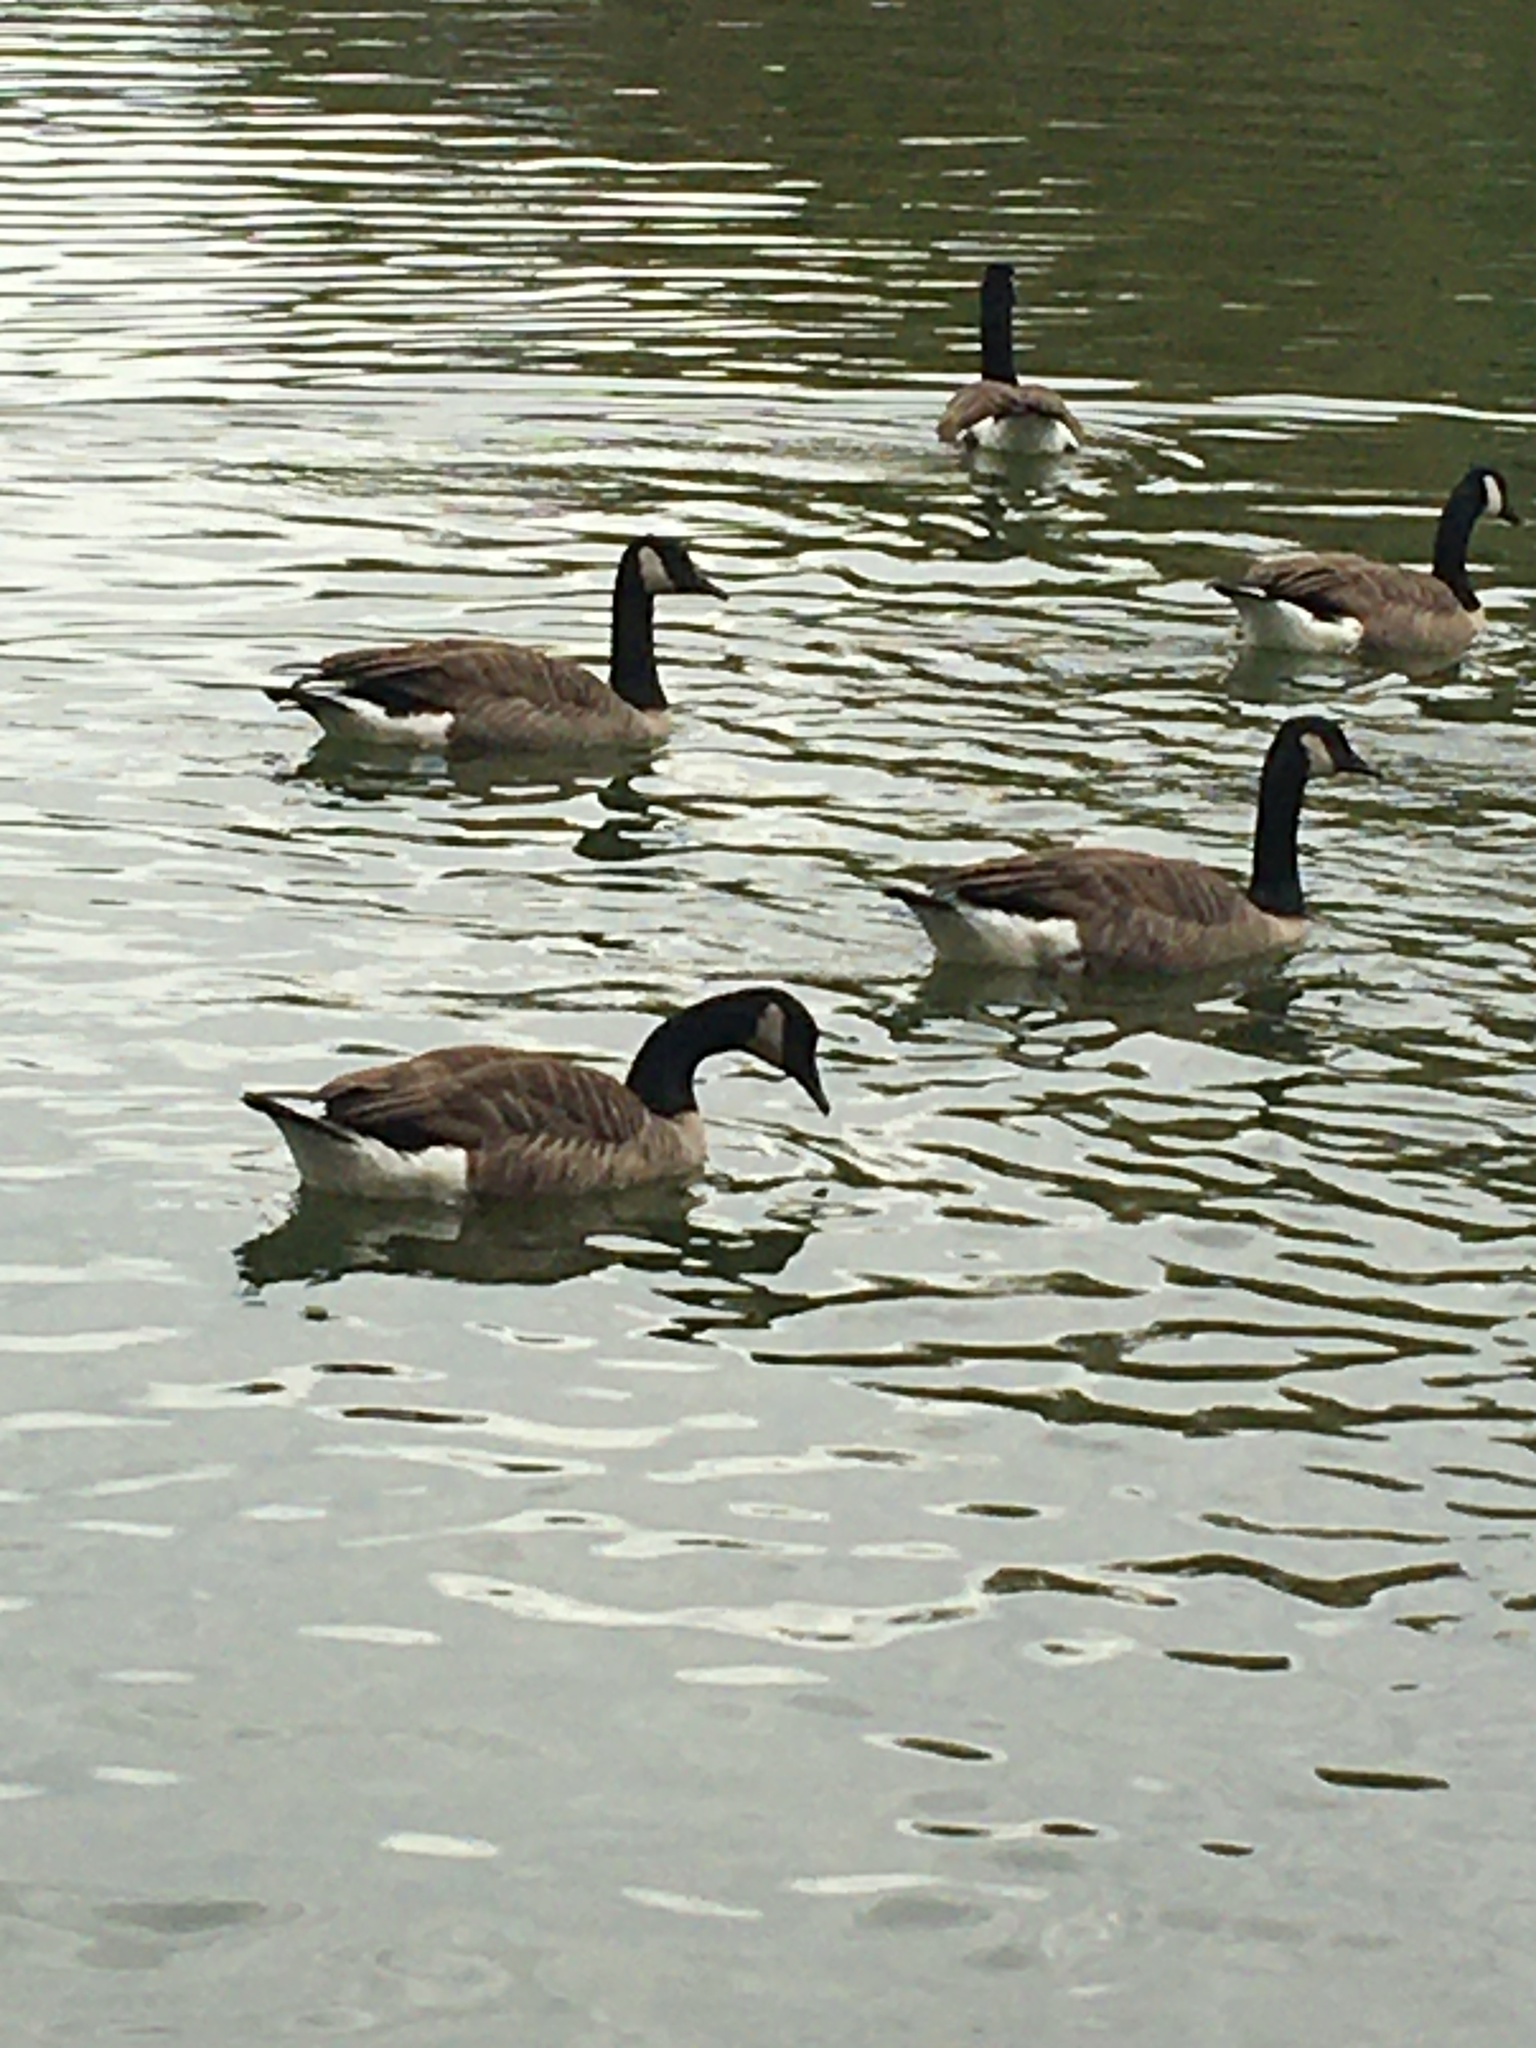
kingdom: Animalia
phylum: Chordata
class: Aves
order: Anseriformes
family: Anatidae
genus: Branta
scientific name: Branta canadensis
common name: Canada goose
